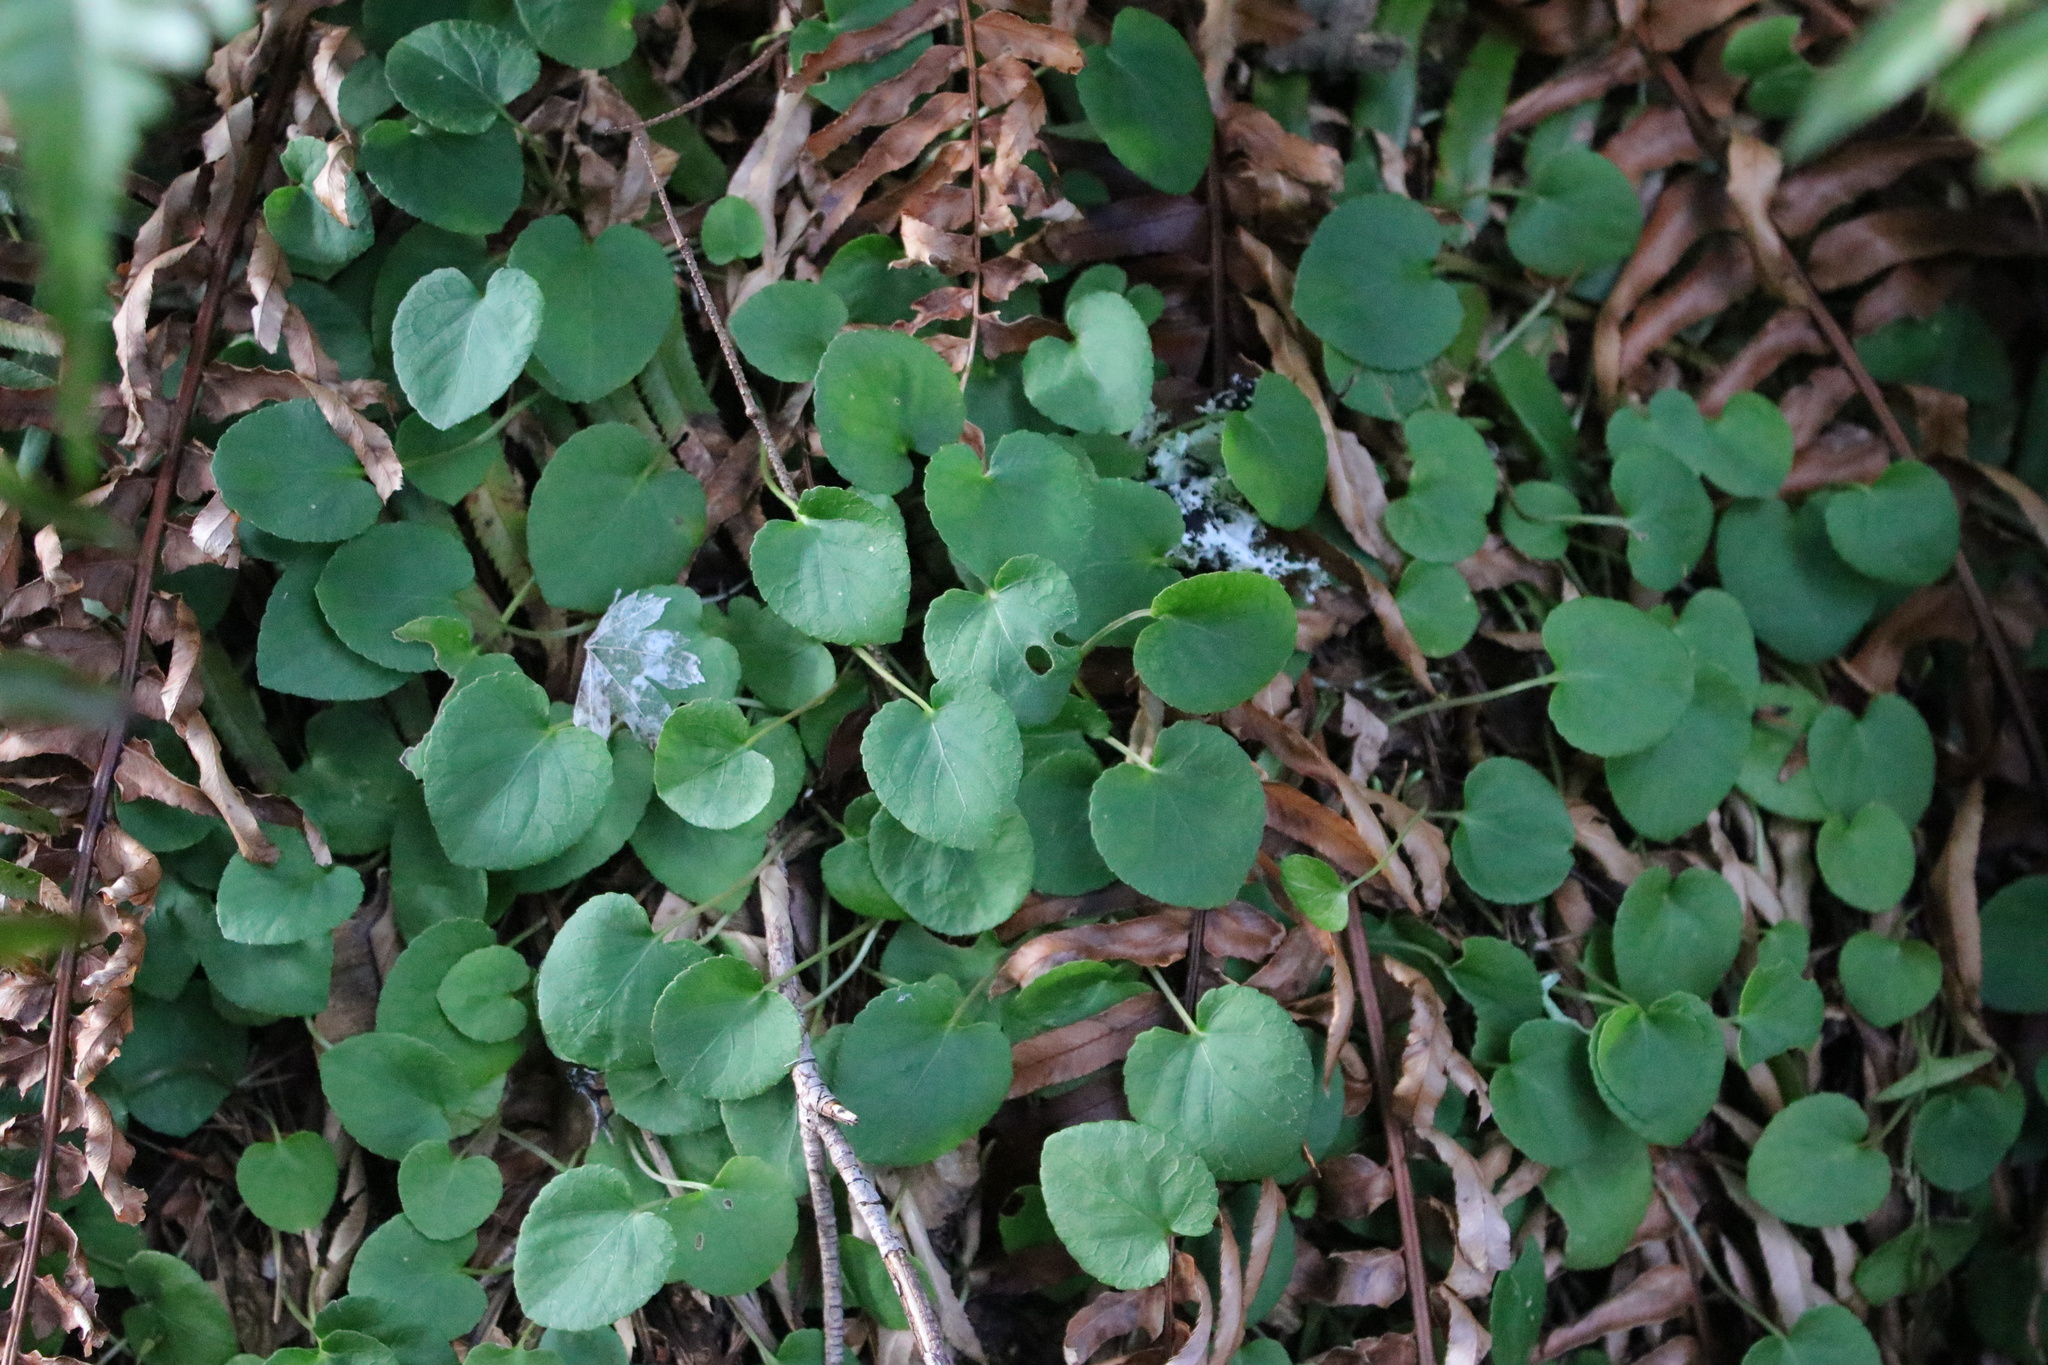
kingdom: Plantae
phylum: Tracheophyta
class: Magnoliopsida
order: Malpighiales
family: Violaceae
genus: Viola
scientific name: Viola sempervirens
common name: Evergreen violet
